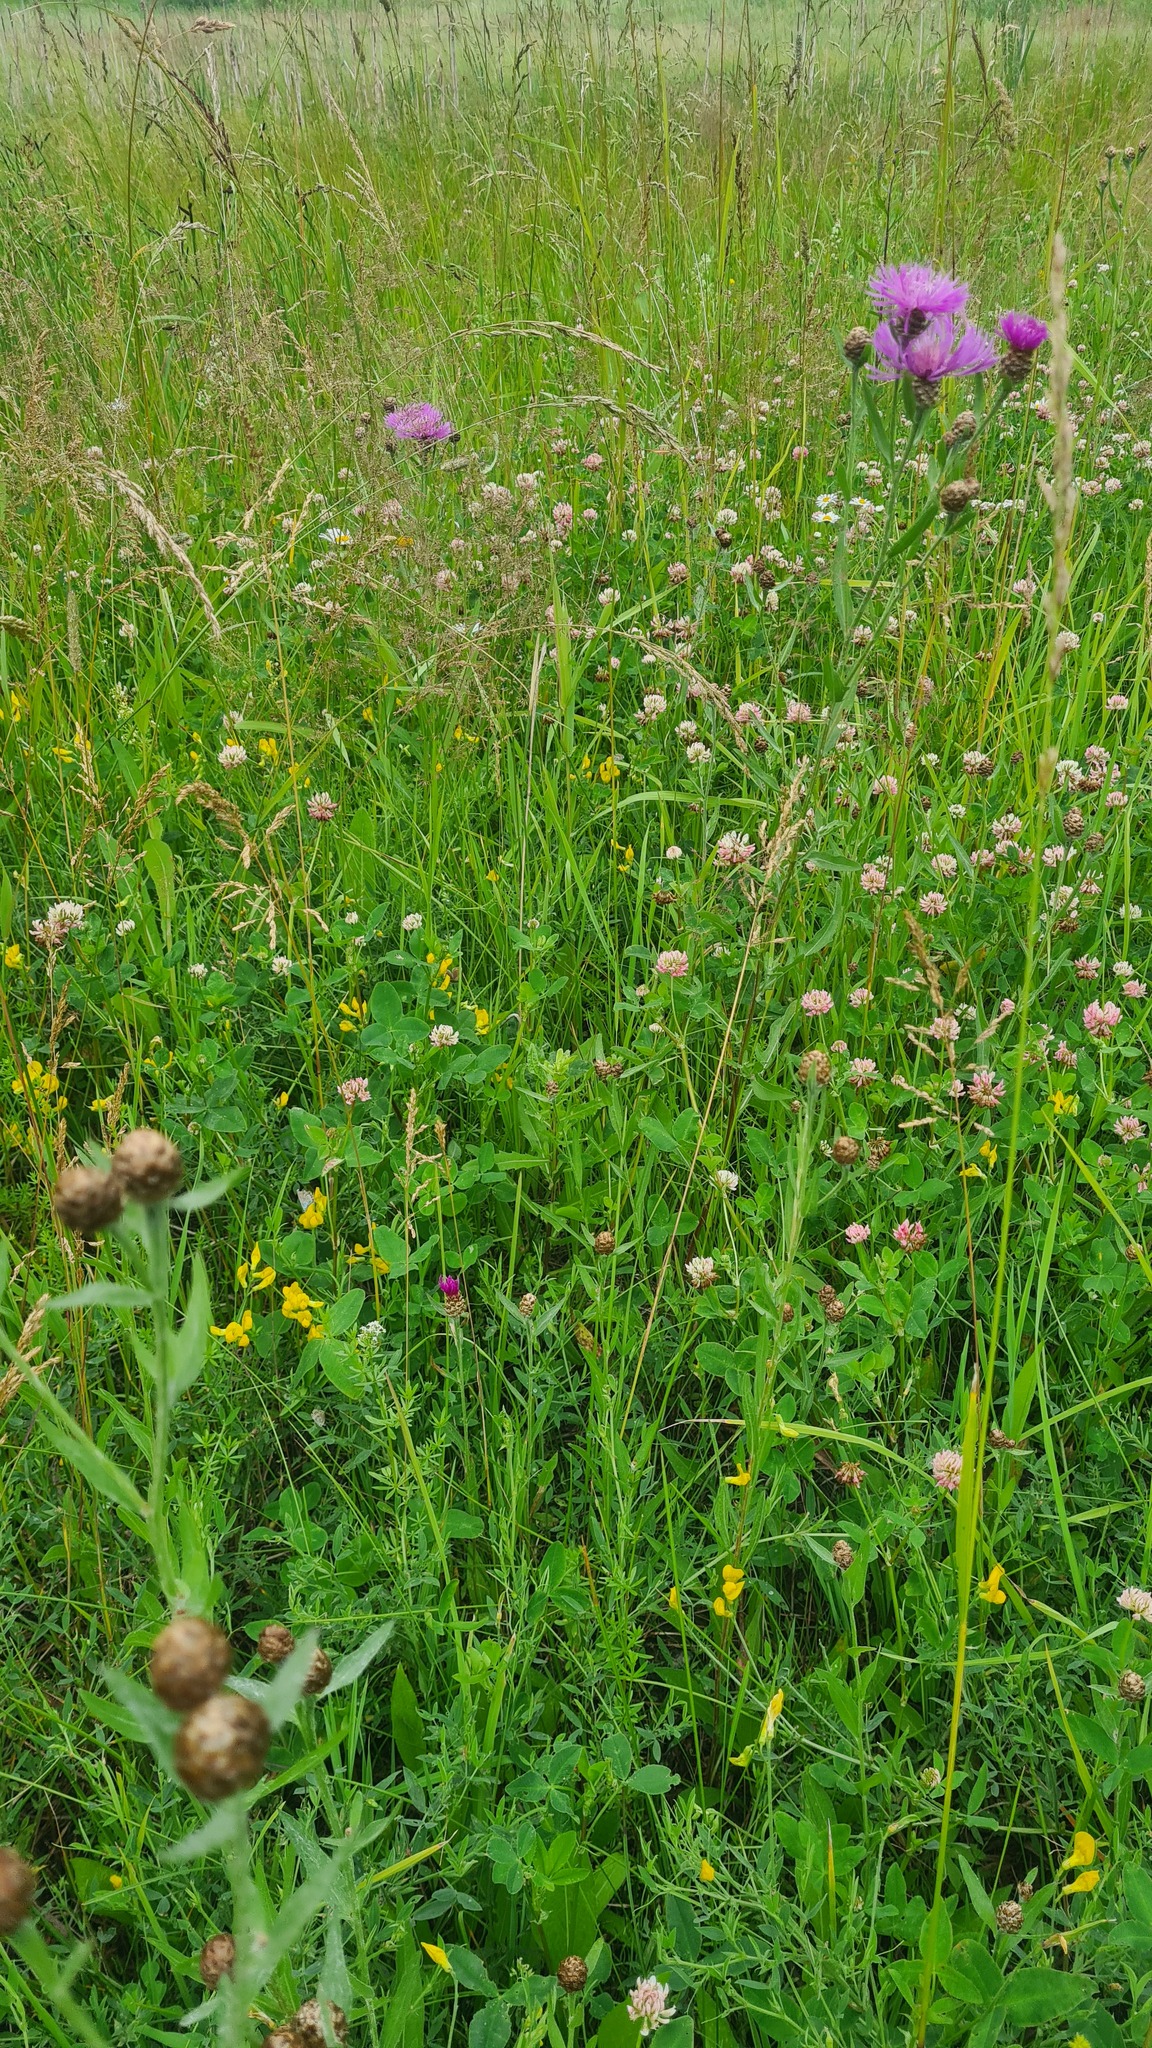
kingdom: Plantae
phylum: Tracheophyta
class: Magnoliopsida
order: Asterales
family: Asteraceae
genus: Centaurea
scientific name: Centaurea jacea
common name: Brown knapweed
